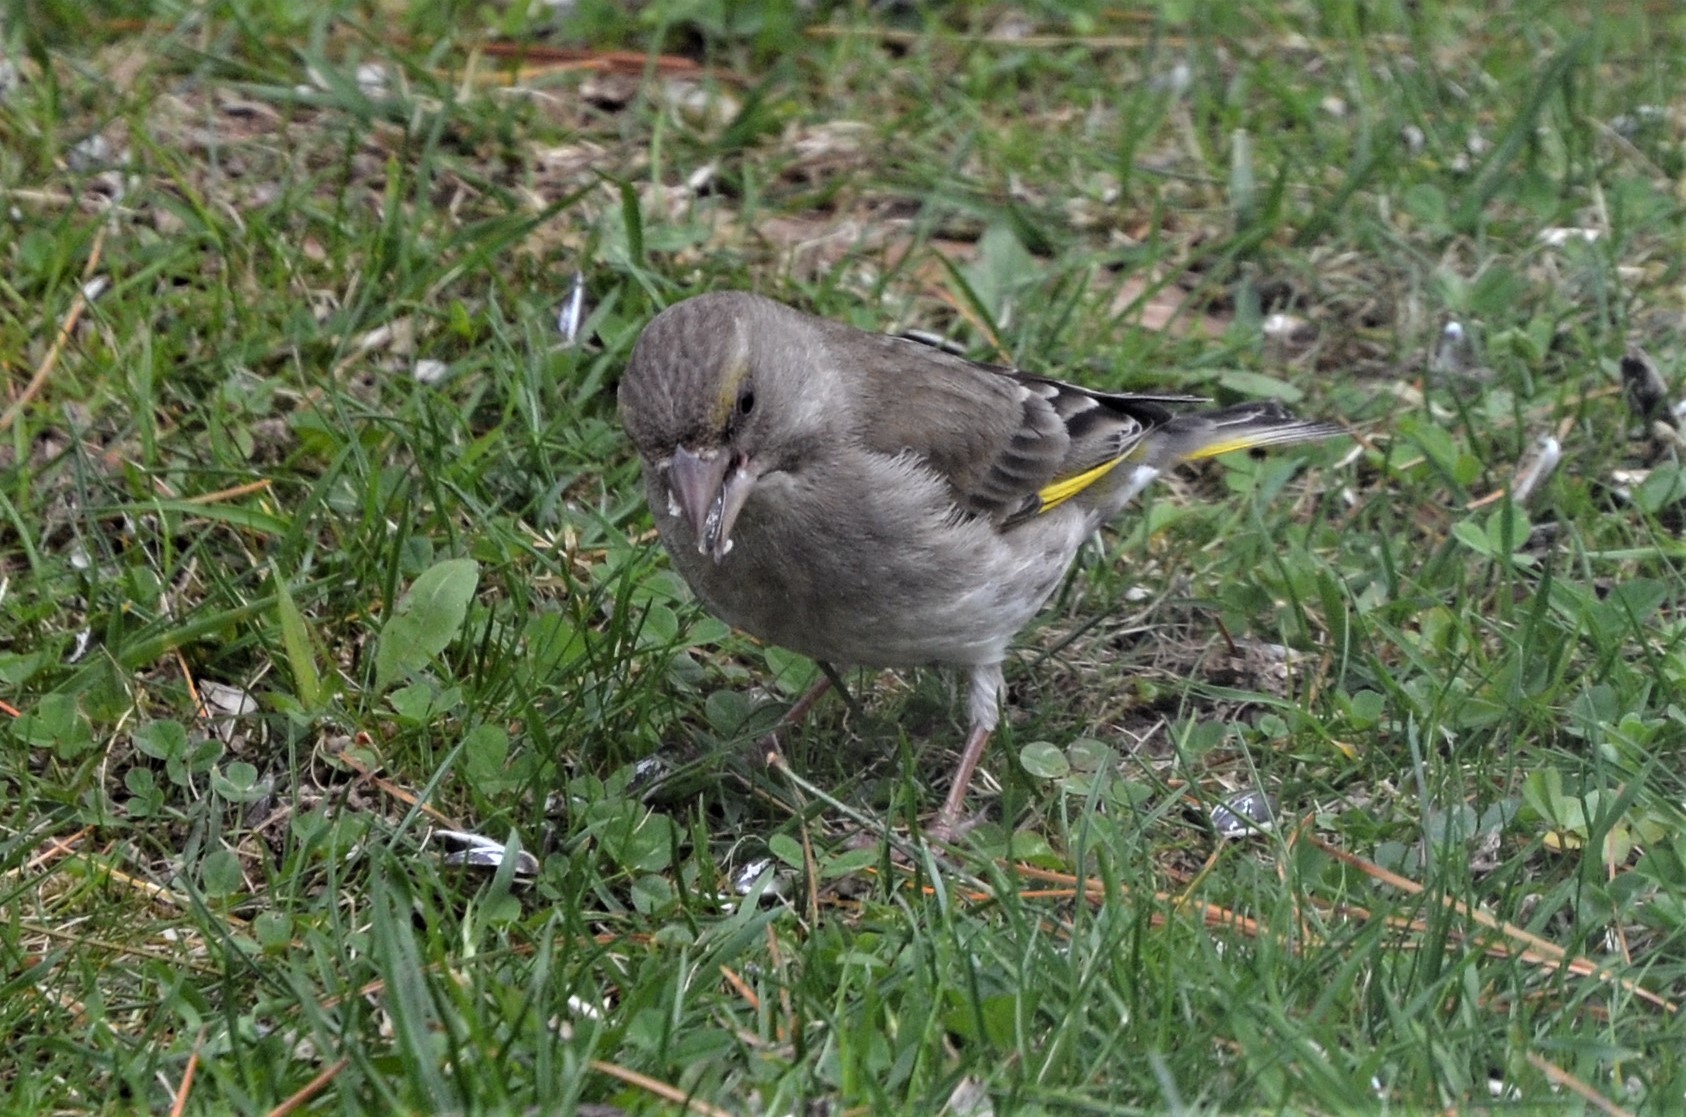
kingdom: Plantae
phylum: Tracheophyta
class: Liliopsida
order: Poales
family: Poaceae
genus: Chloris
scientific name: Chloris chloris
